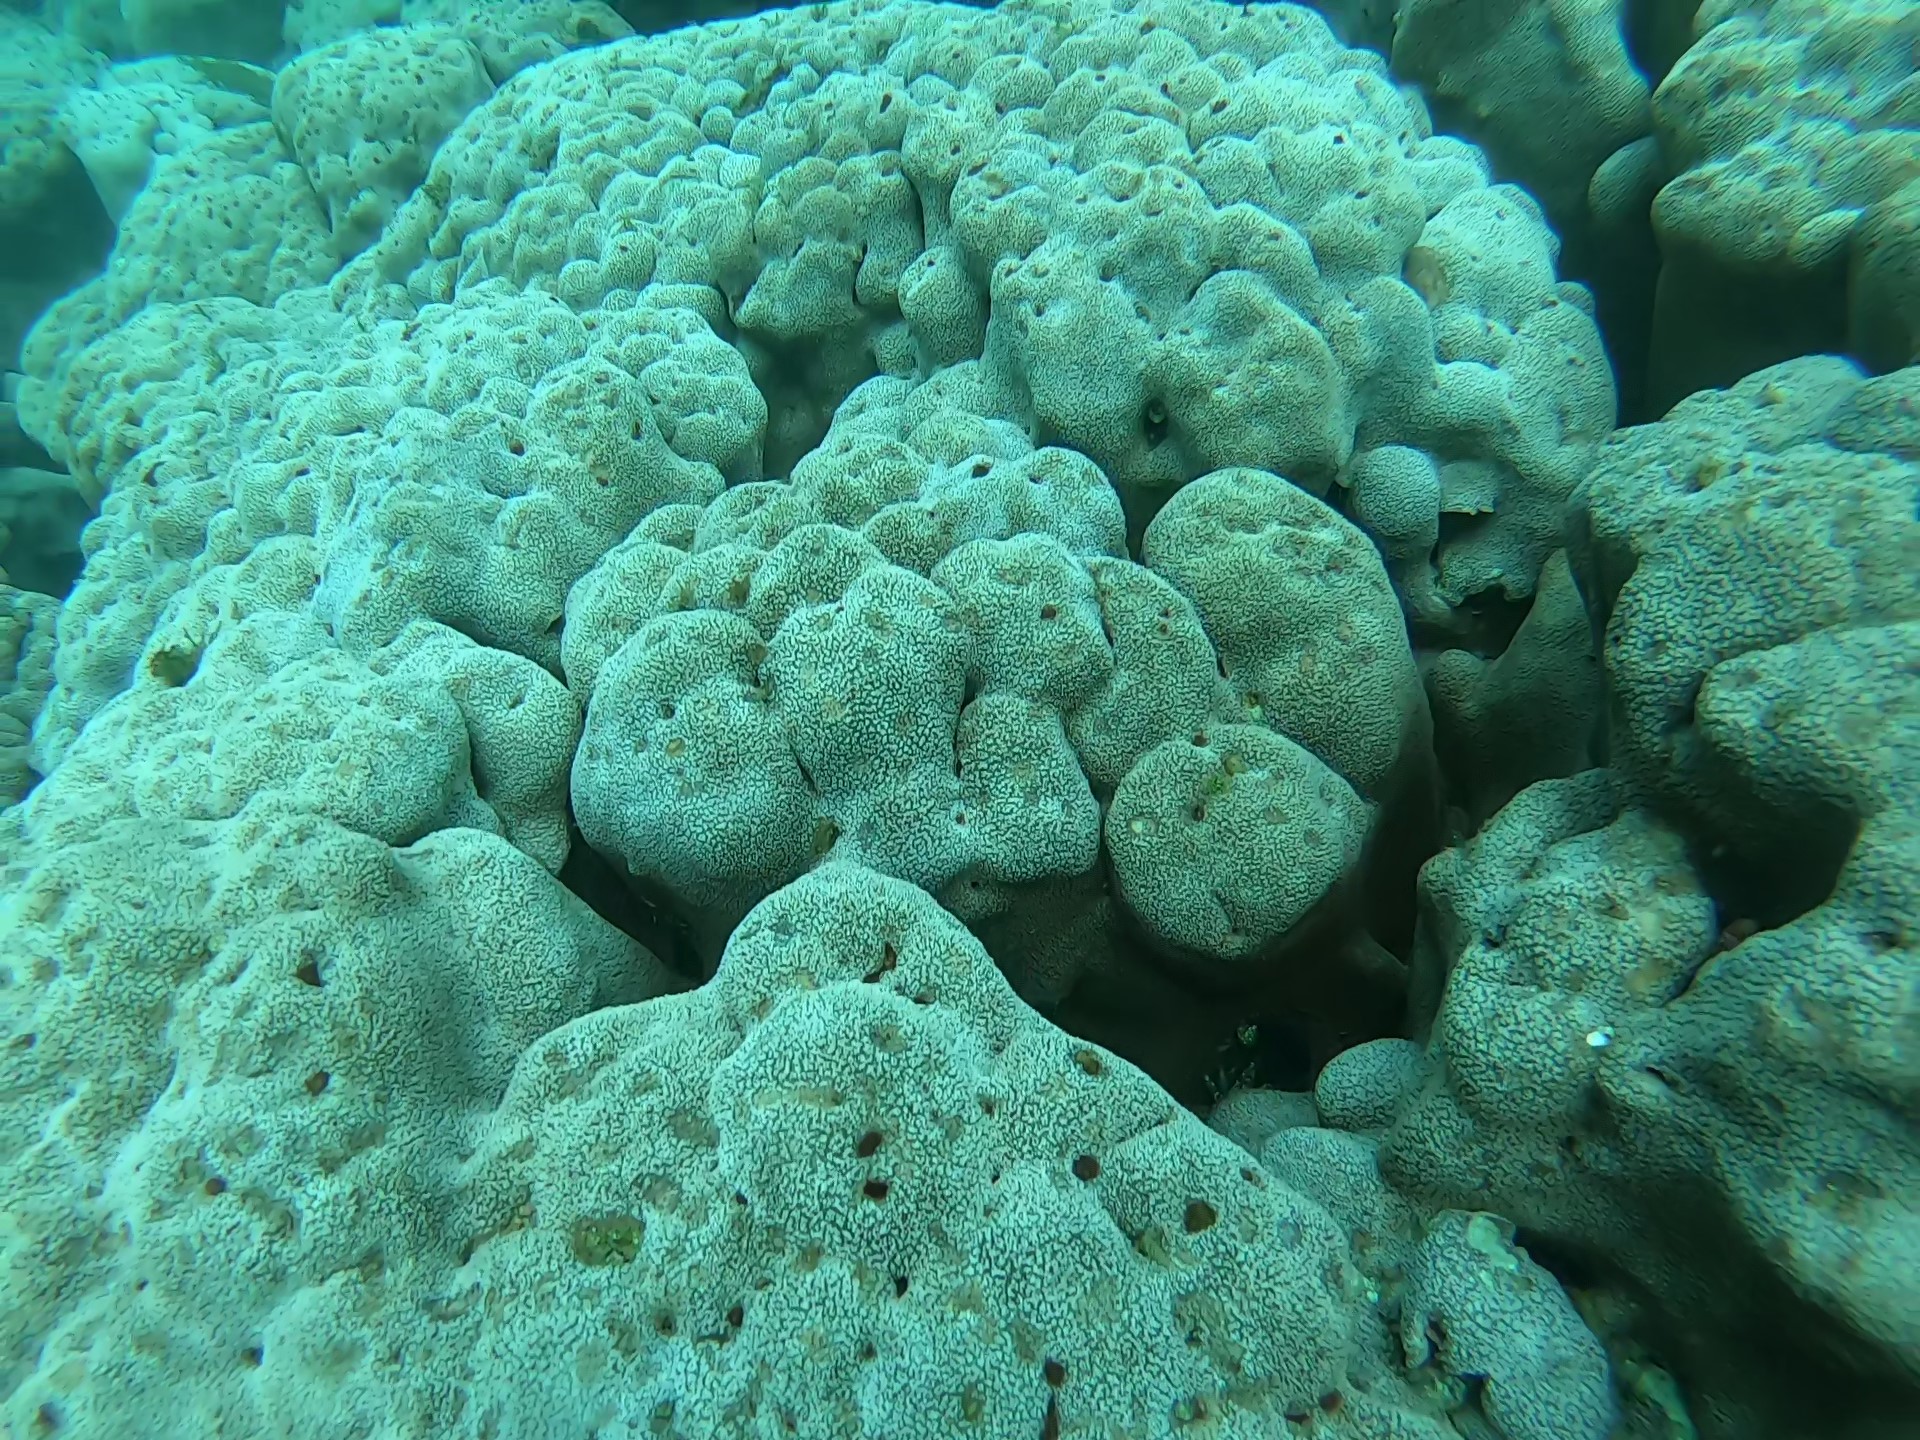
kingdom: Animalia
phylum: Cnidaria
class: Anthozoa
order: Scleractinia
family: Agariciidae
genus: Pavona
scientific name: Pavona gigantea
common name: Leaf coral
